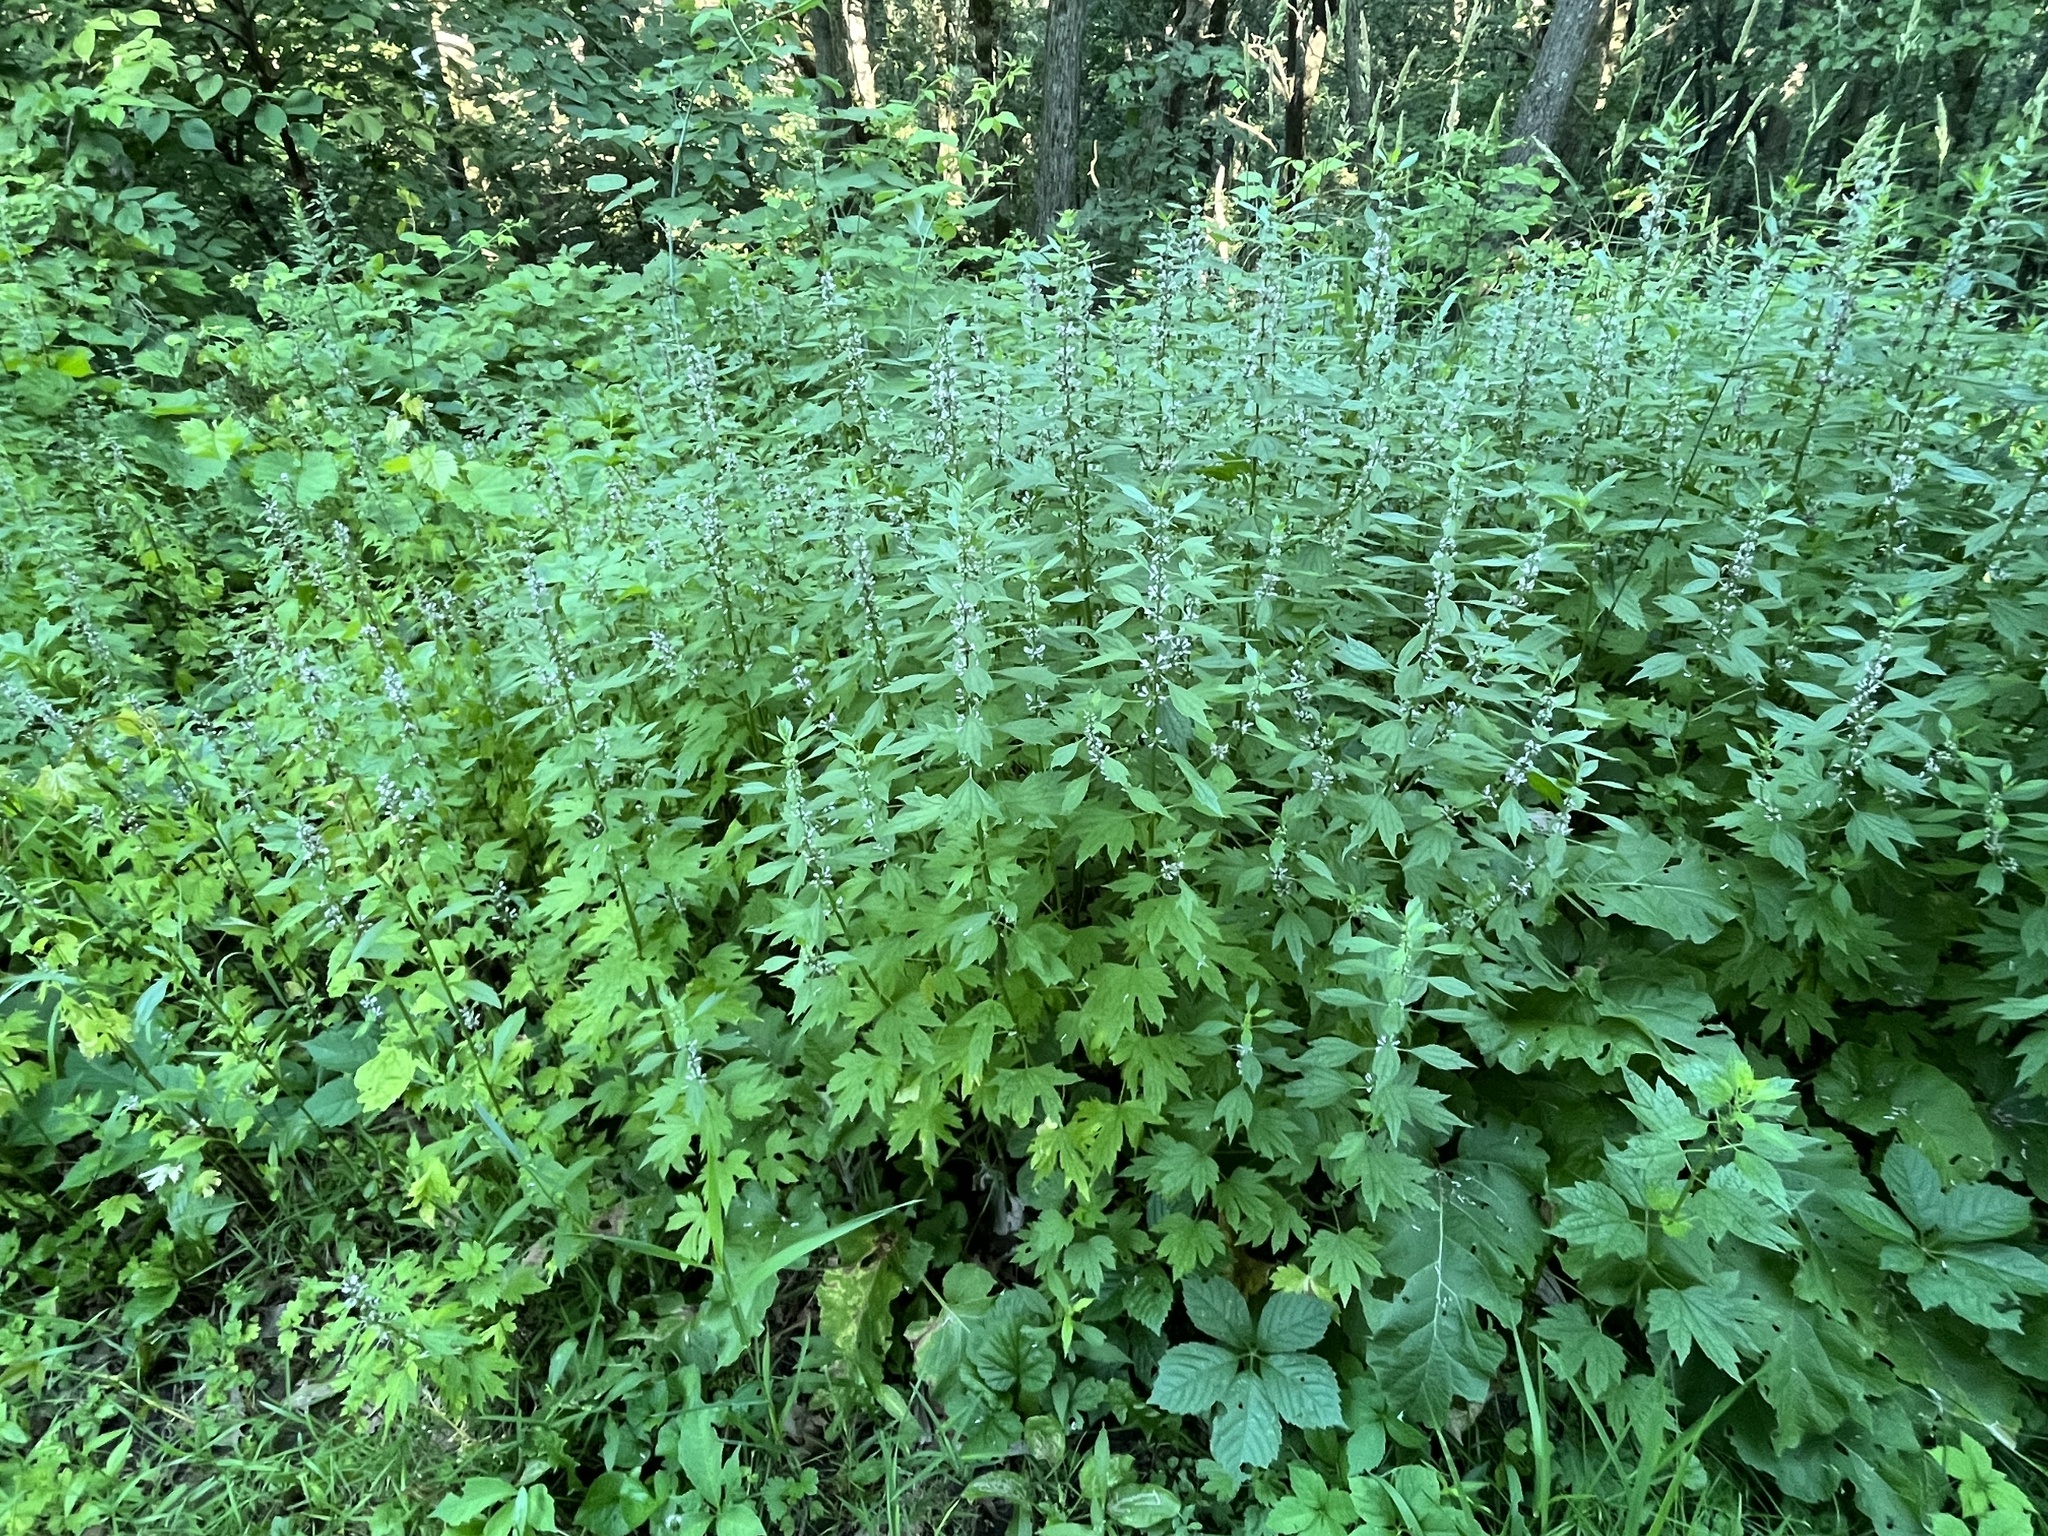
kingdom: Plantae
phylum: Tracheophyta
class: Magnoliopsida
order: Lamiales
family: Lamiaceae
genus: Leonurus
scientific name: Leonurus cardiaca
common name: Motherwort
